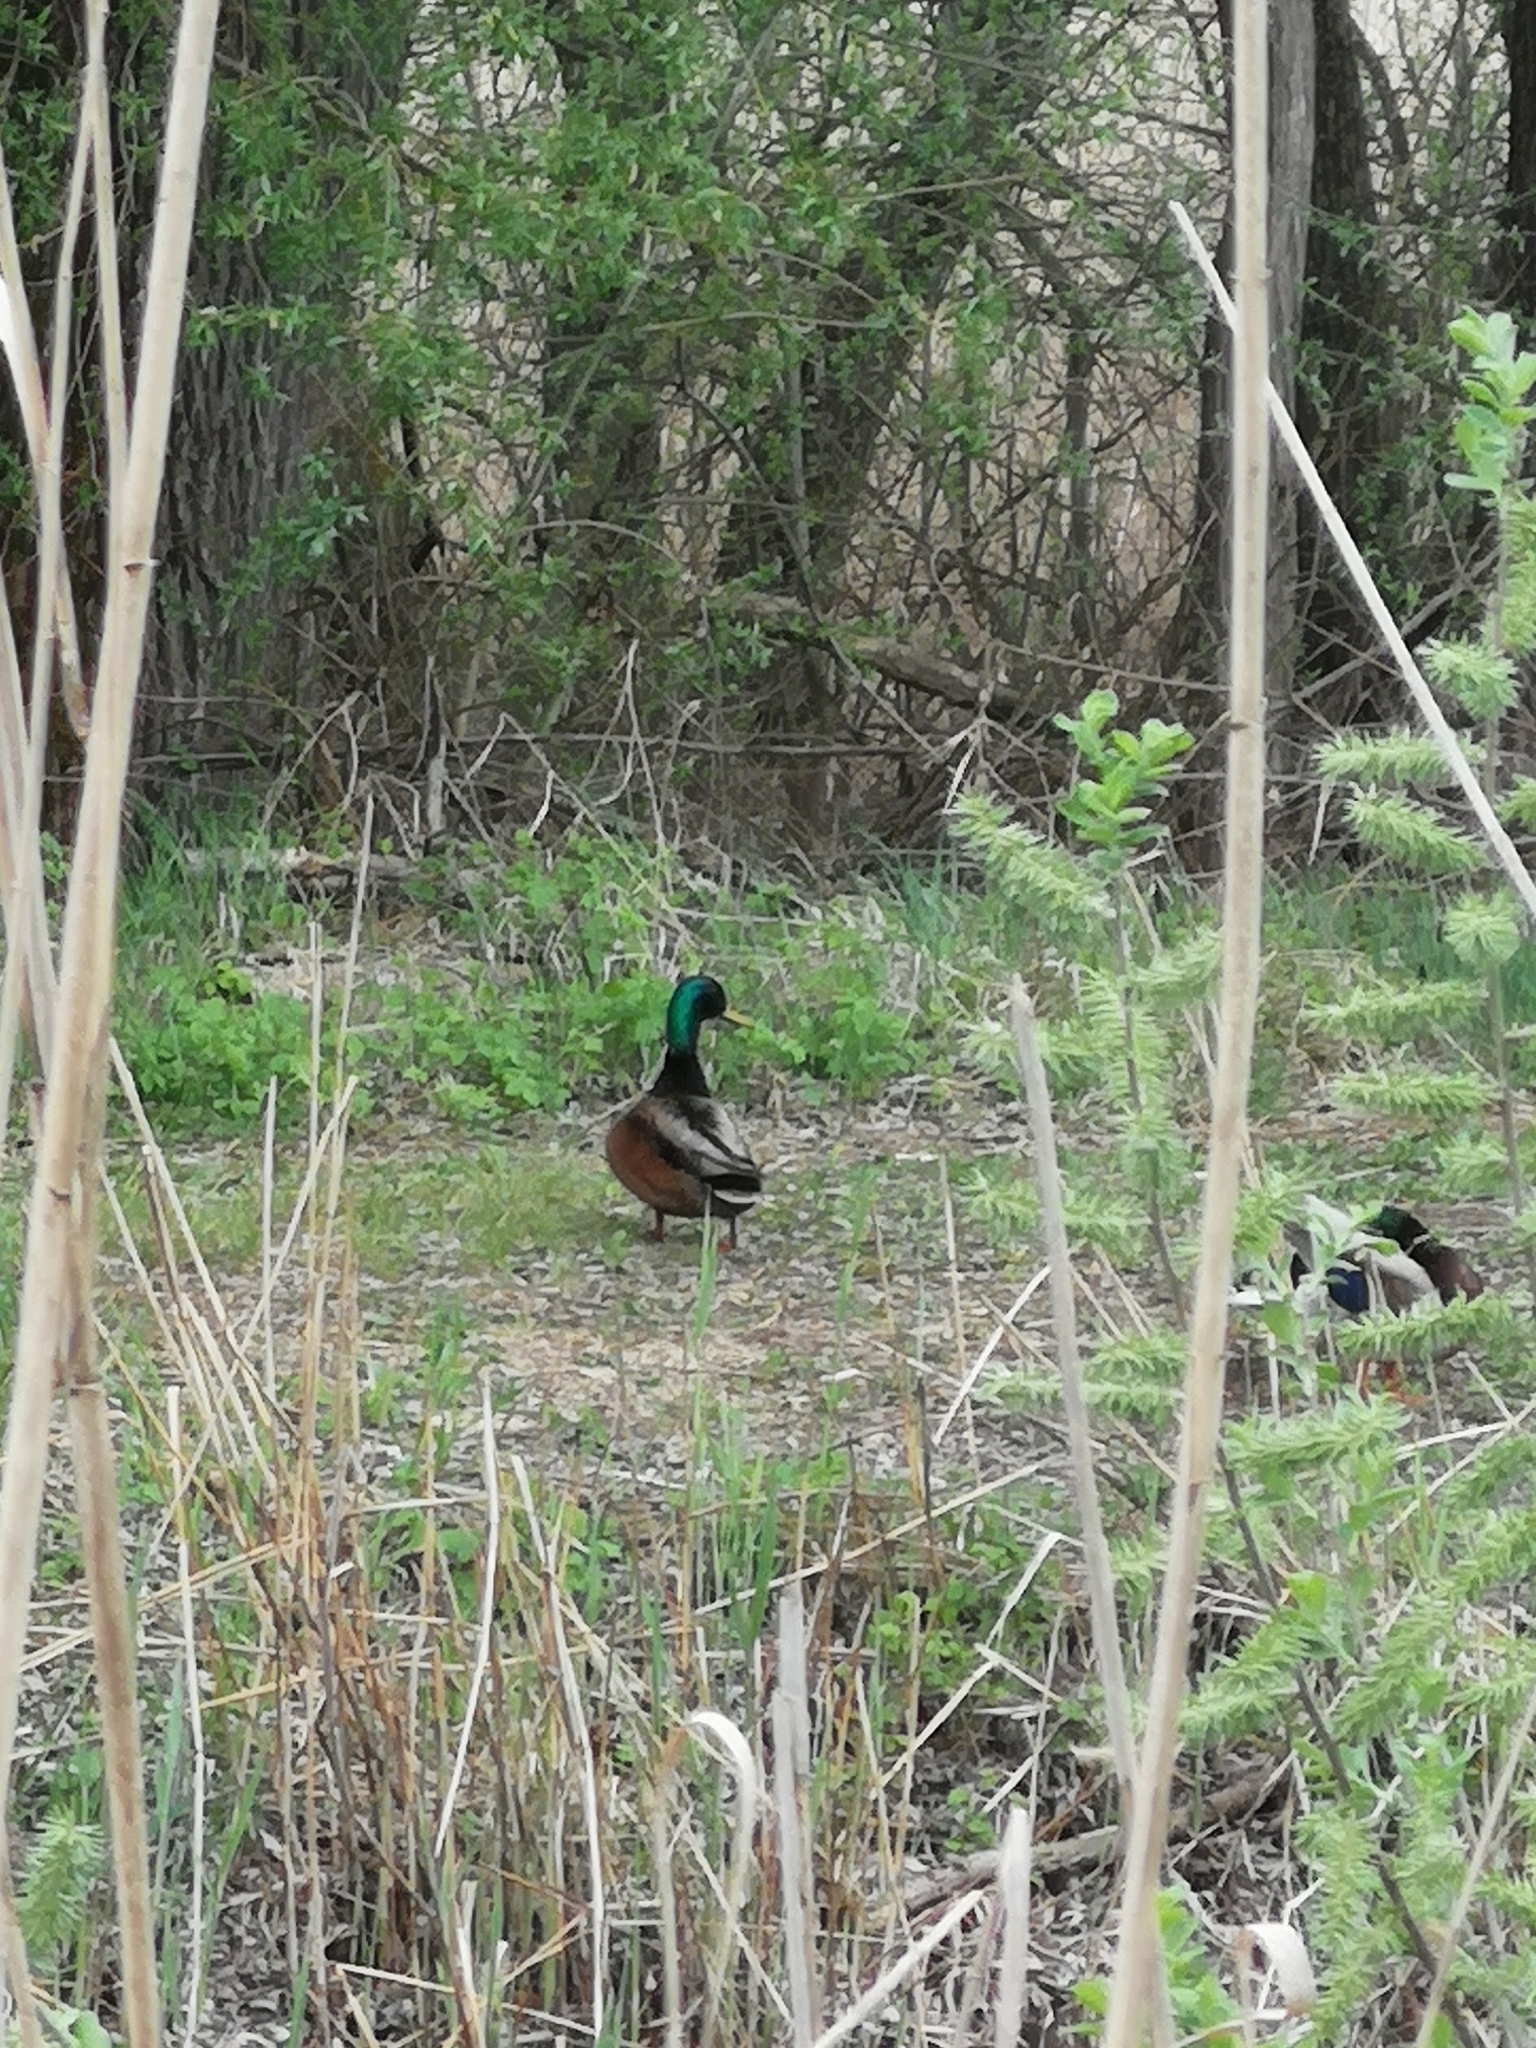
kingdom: Animalia
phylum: Chordata
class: Aves
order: Anseriformes
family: Anatidae
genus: Anas
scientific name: Anas platyrhynchos
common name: Mallard
